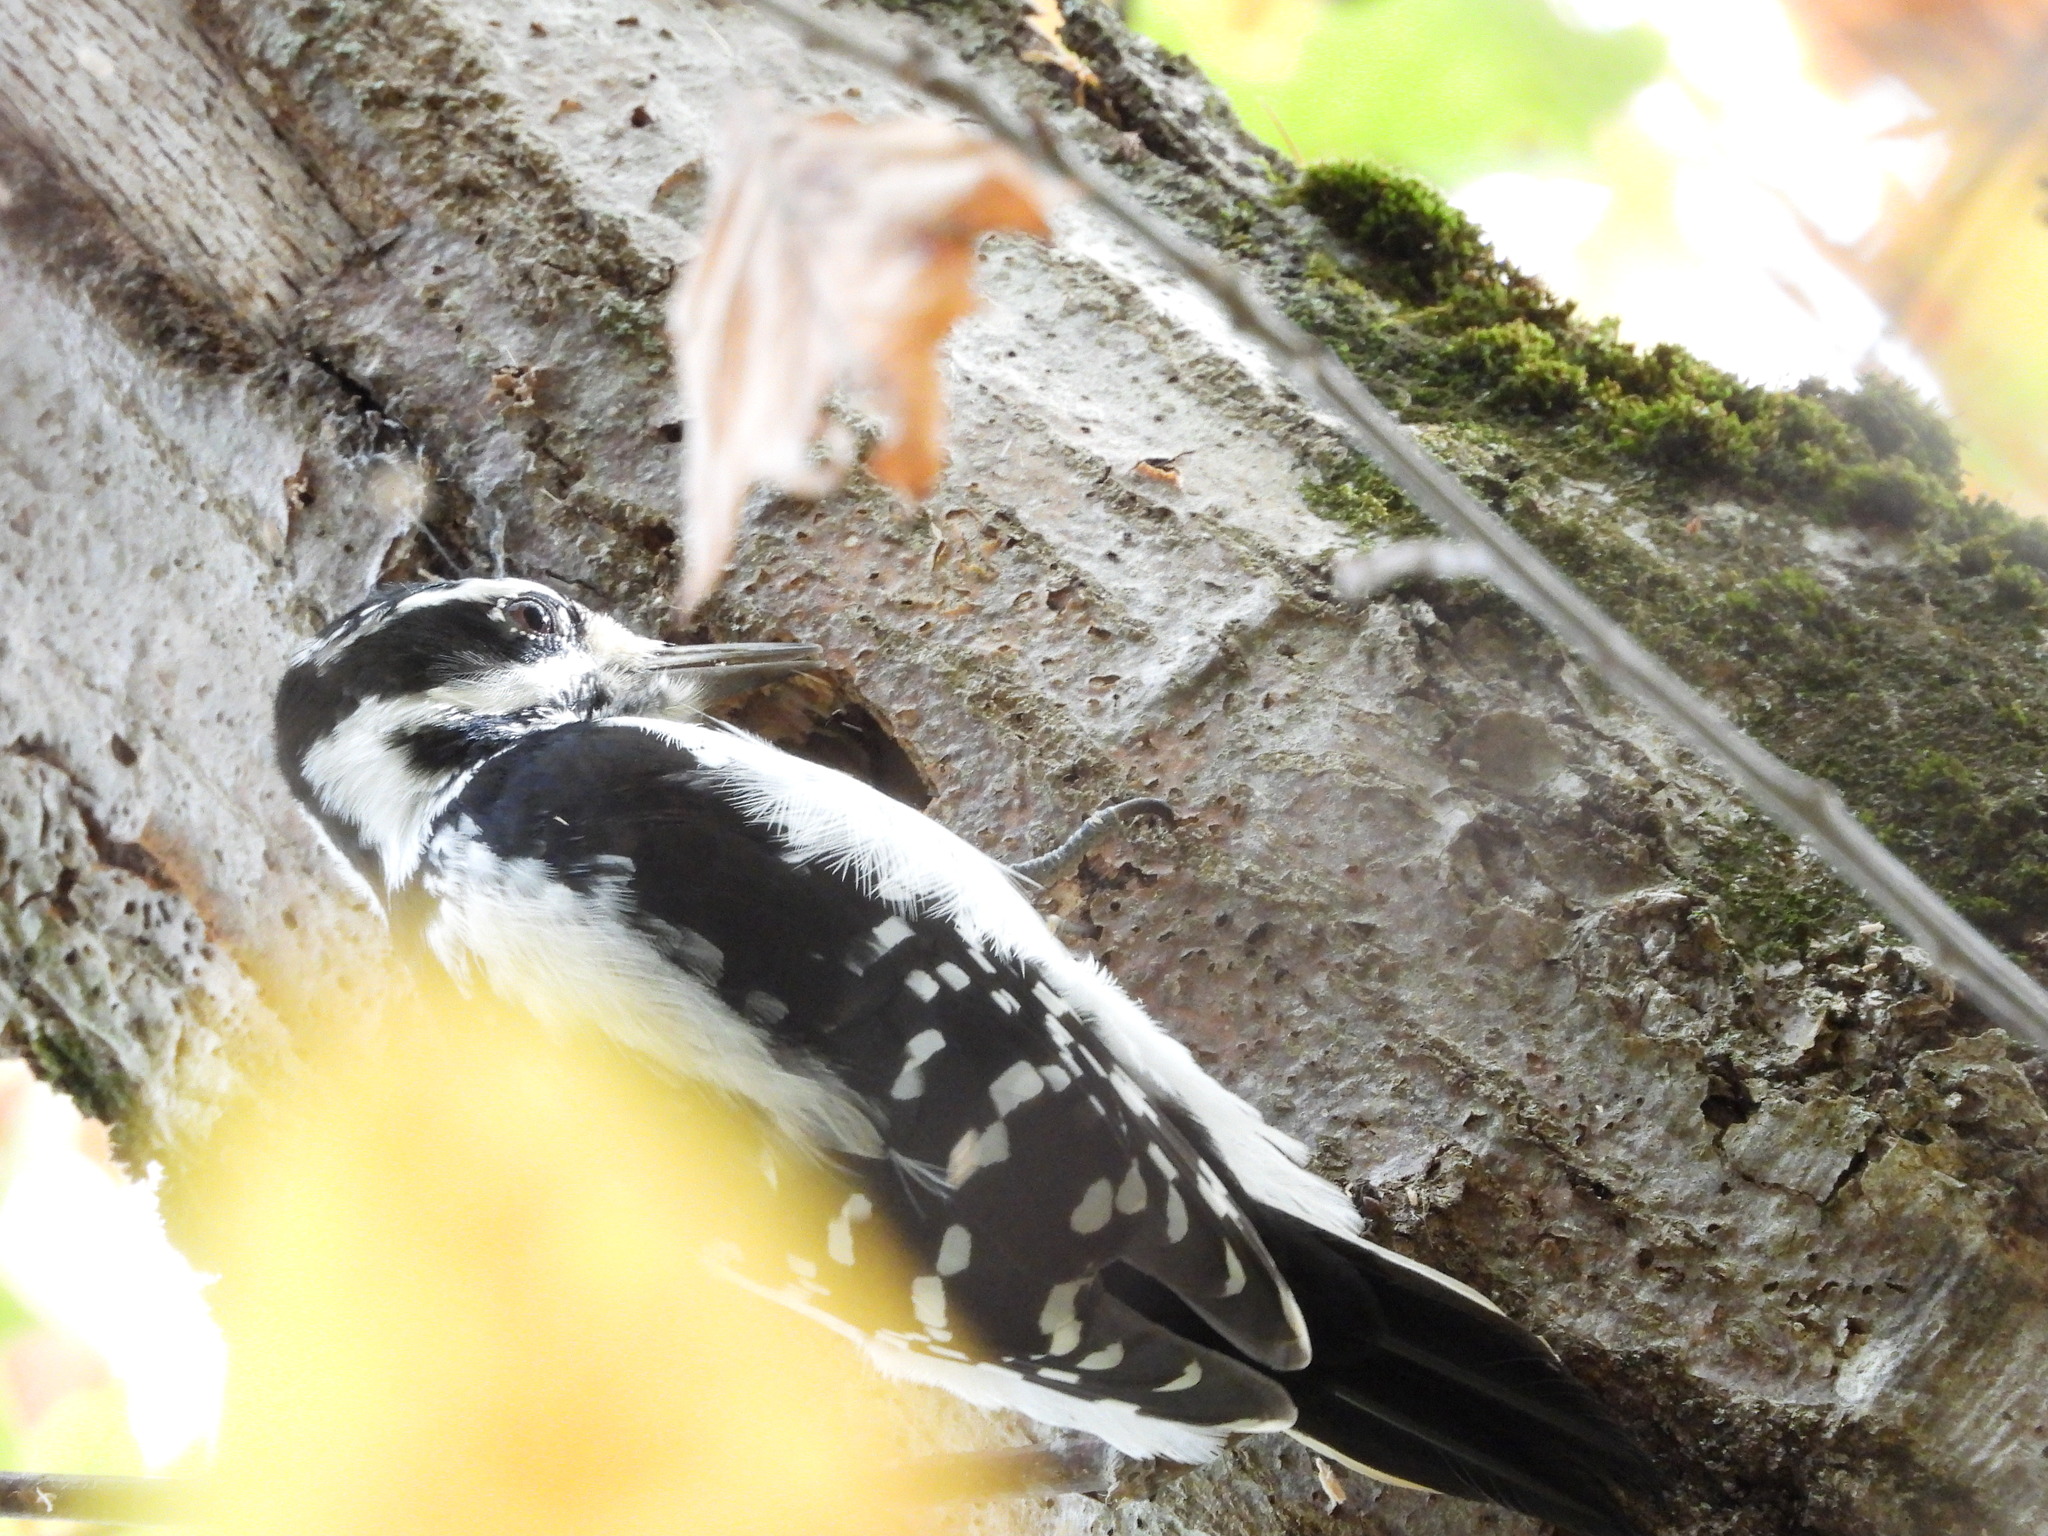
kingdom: Animalia
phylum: Chordata
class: Aves
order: Piciformes
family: Picidae
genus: Leuconotopicus
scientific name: Leuconotopicus villosus
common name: Hairy woodpecker
